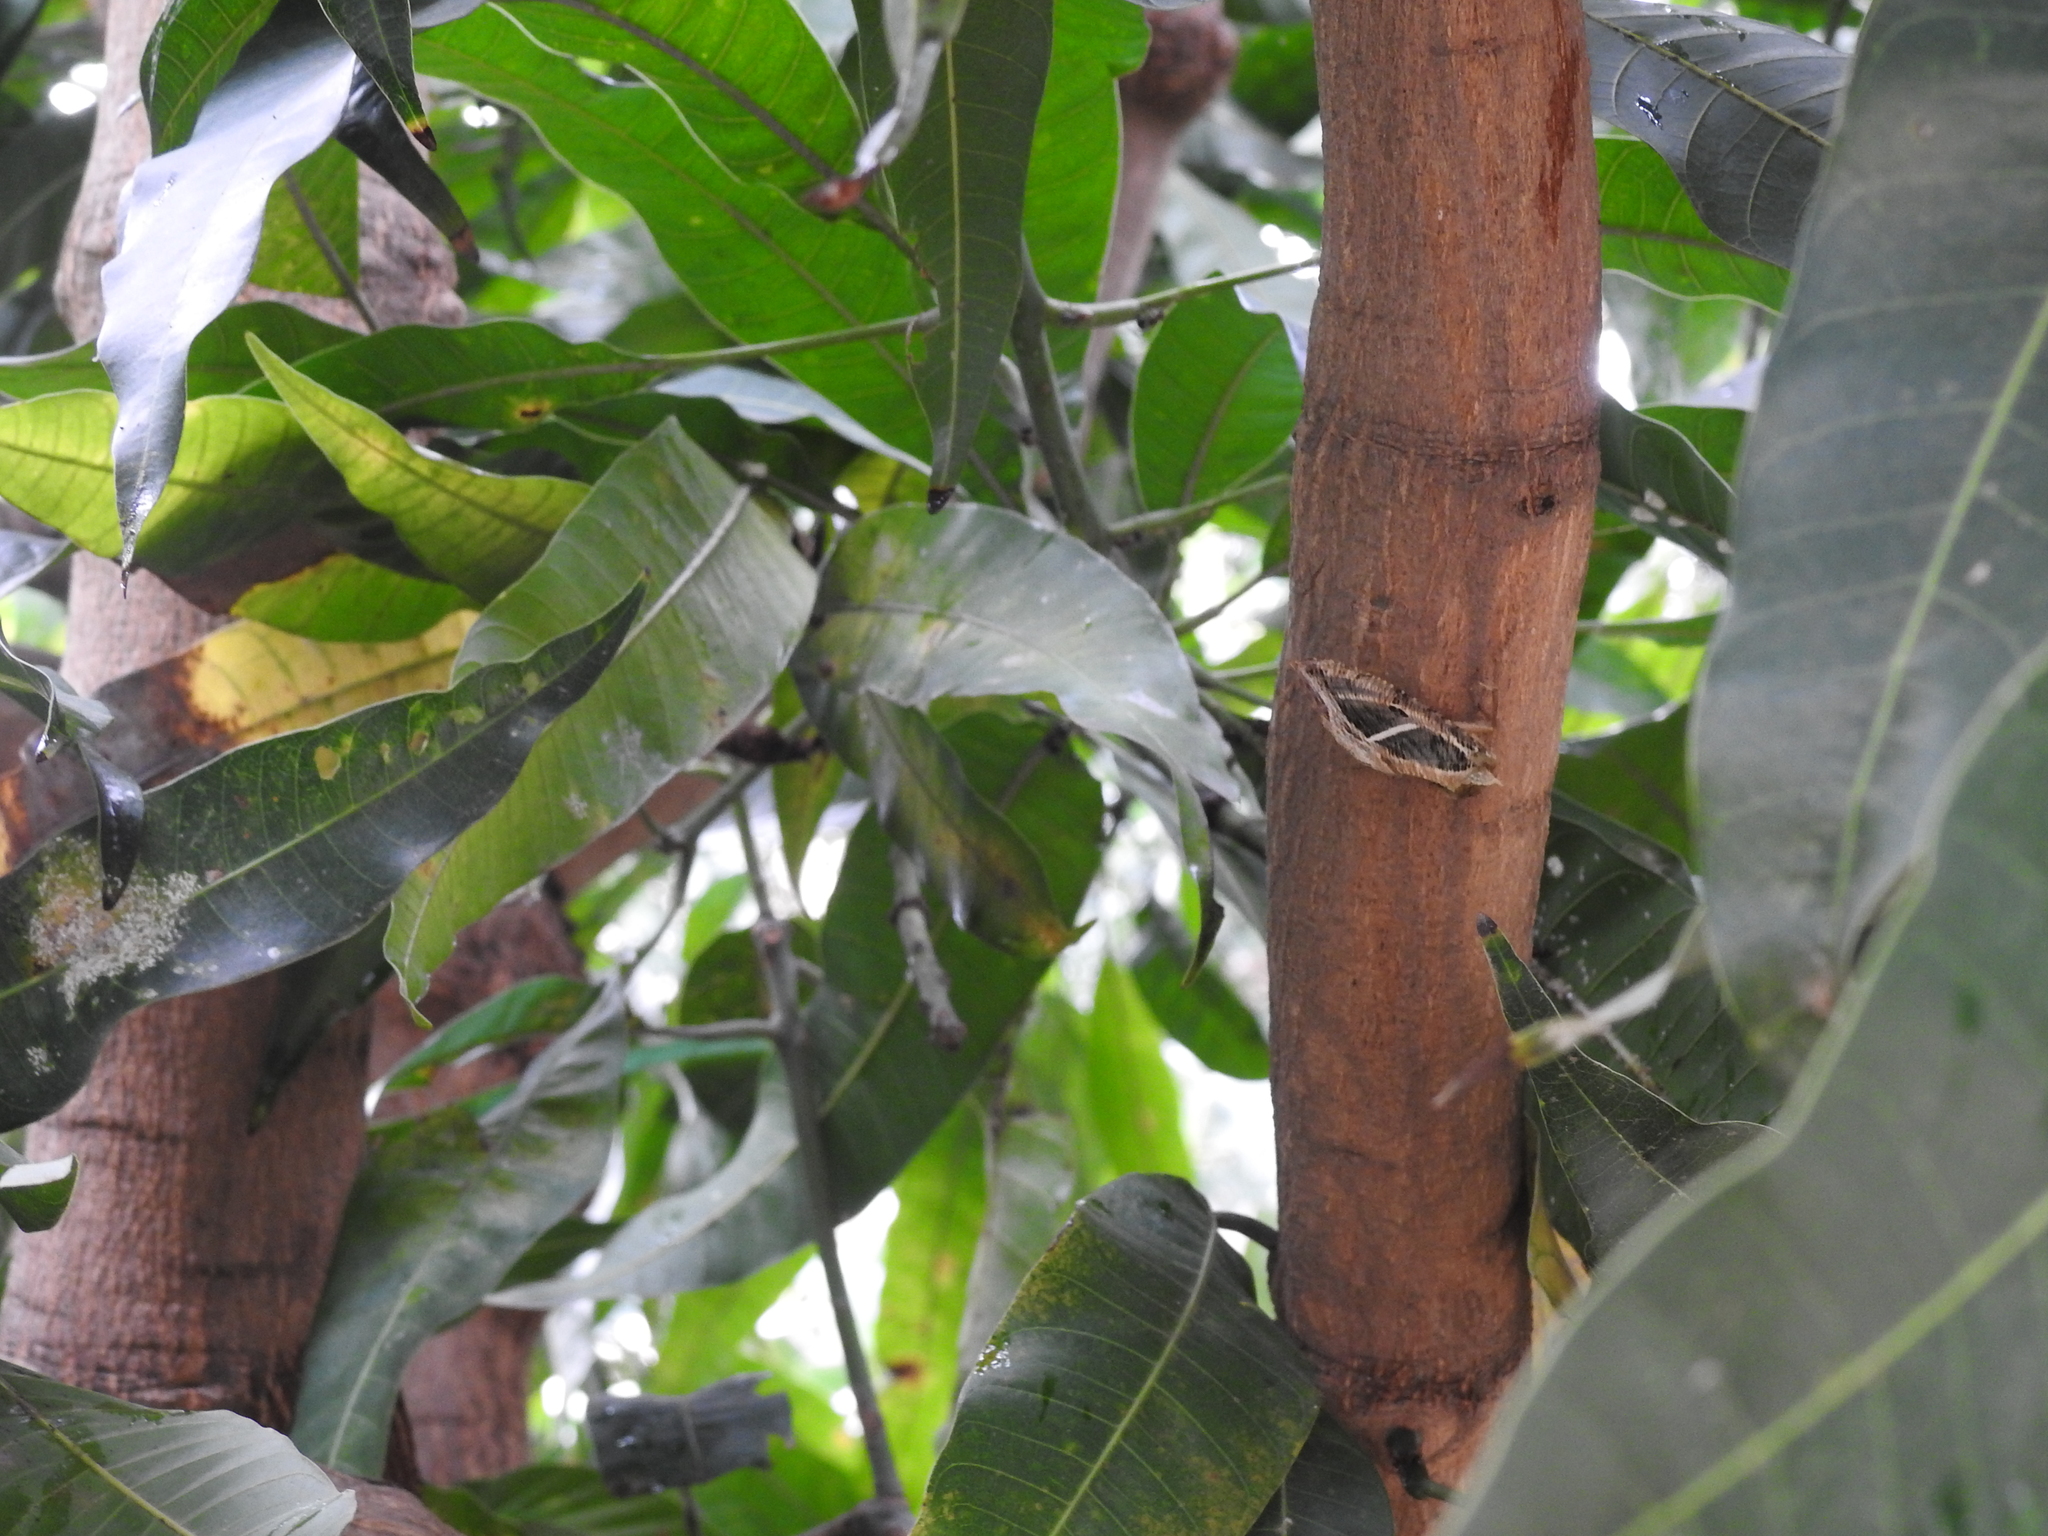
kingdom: Animalia
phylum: Arthropoda
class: Insecta
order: Lepidoptera
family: Erebidae
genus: Eudocima
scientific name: Eudocima materna
